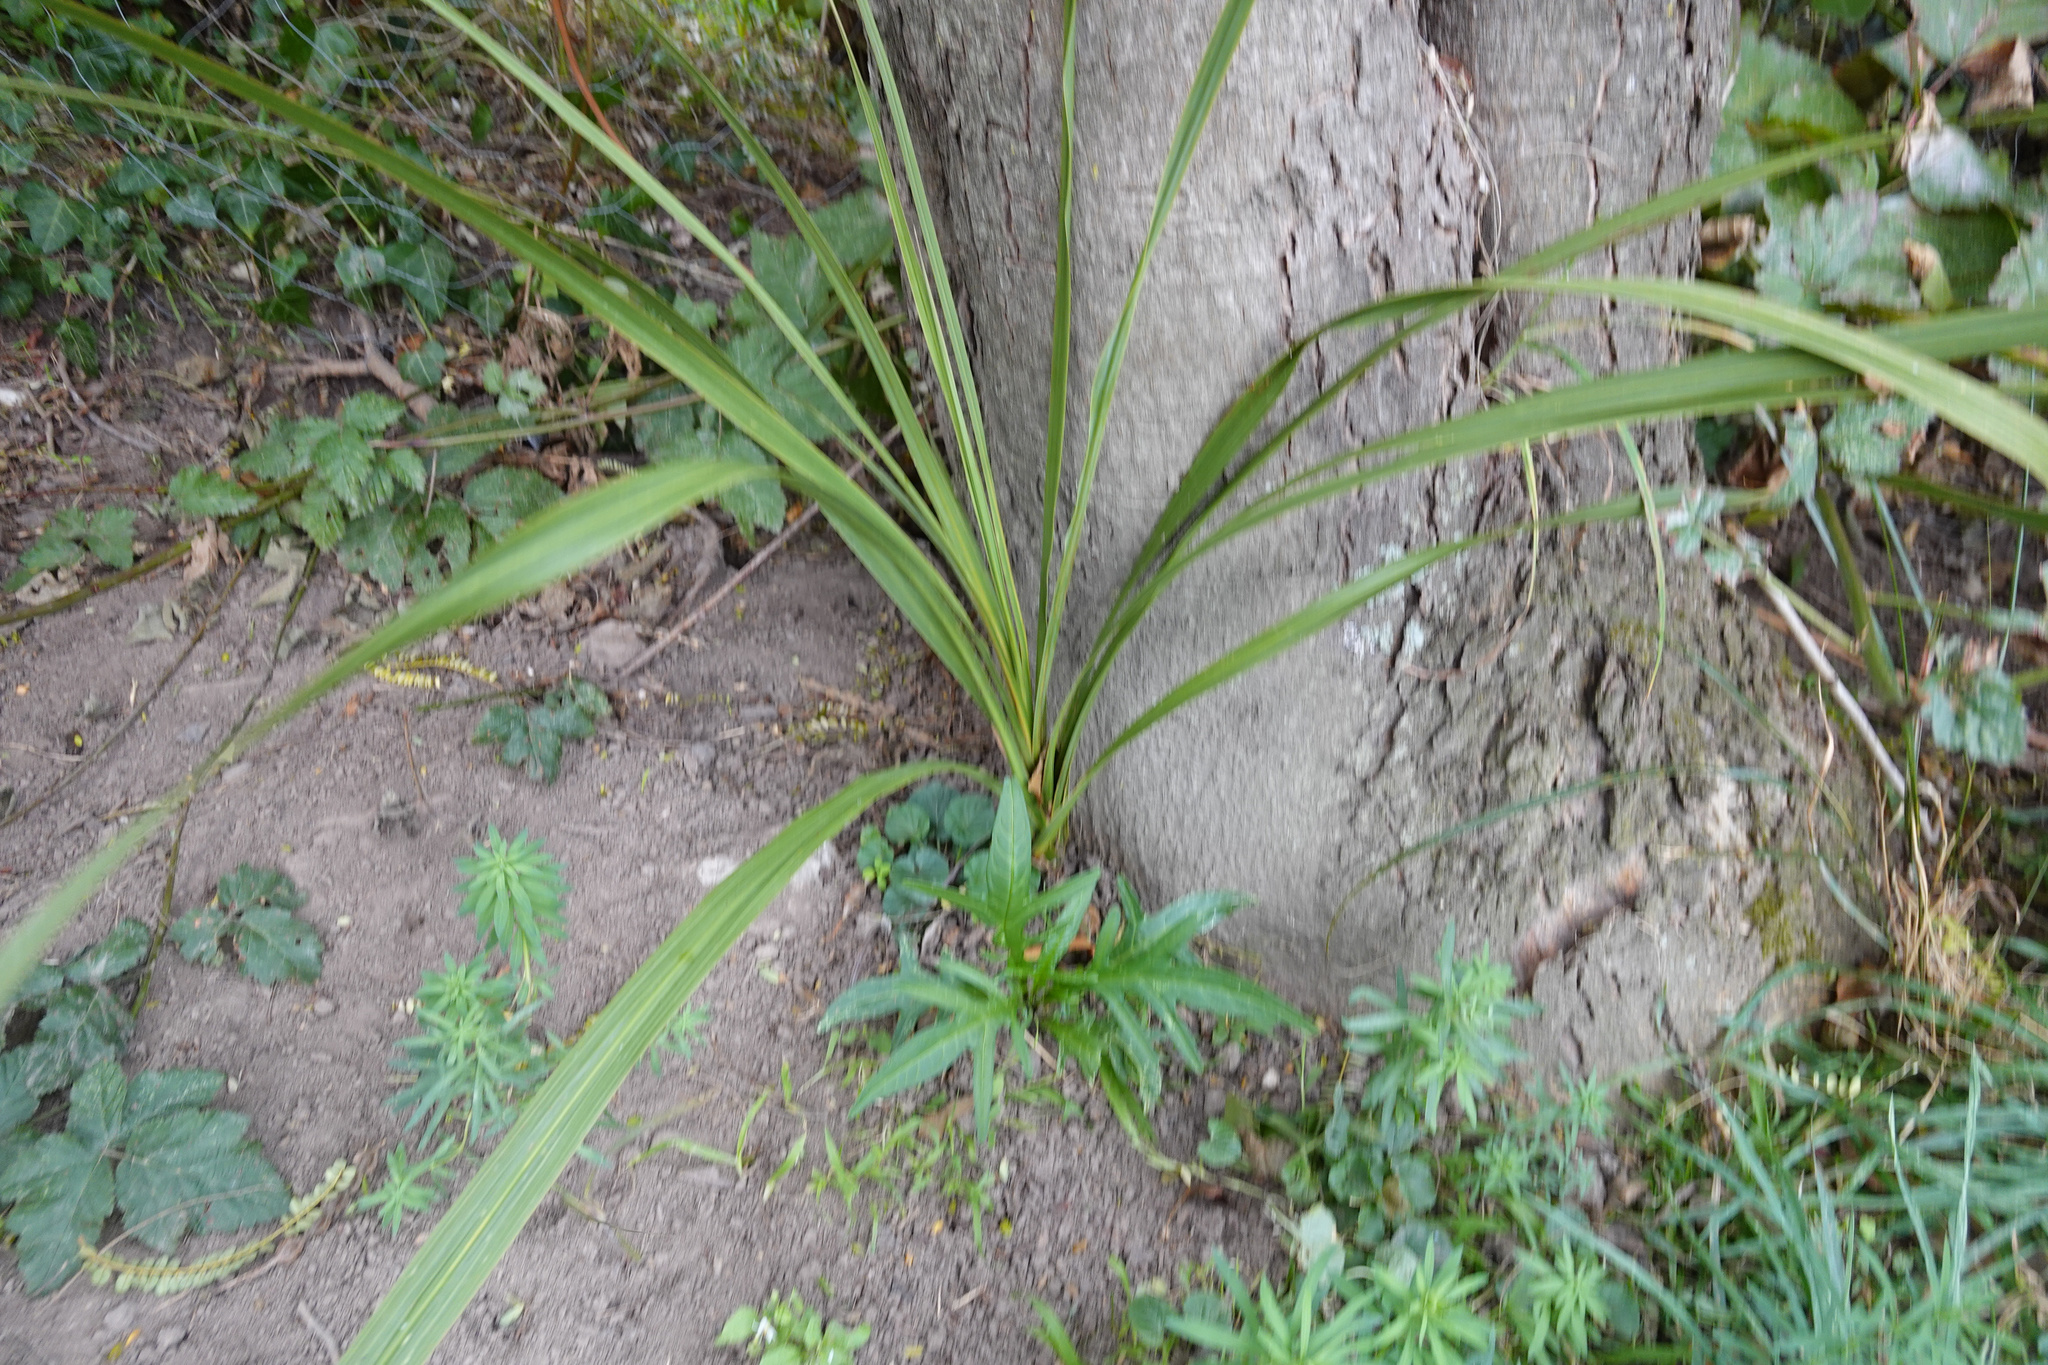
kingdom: Plantae
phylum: Tracheophyta
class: Liliopsida
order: Asparagales
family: Asparagaceae
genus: Cordyline
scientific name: Cordyline australis
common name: Cabbage-palm
